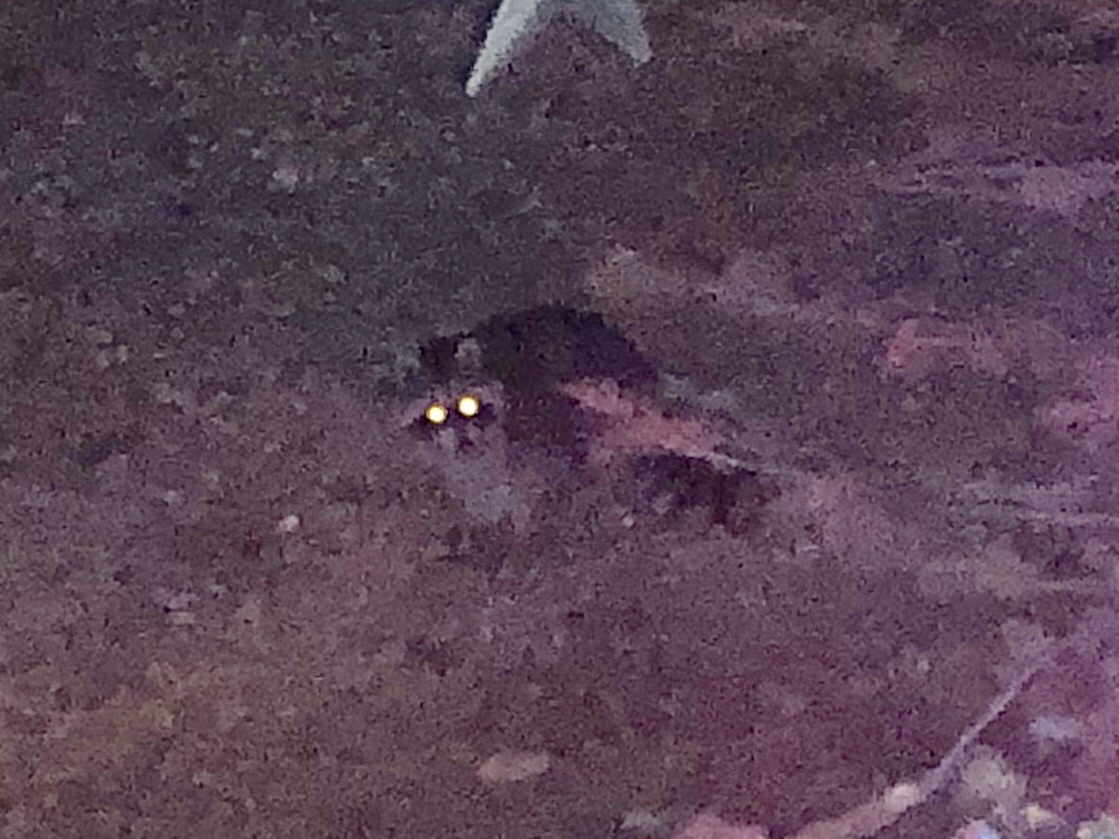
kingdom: Animalia
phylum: Chordata
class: Mammalia
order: Carnivora
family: Procyonidae
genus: Procyon
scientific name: Procyon lotor
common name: Raccoon
